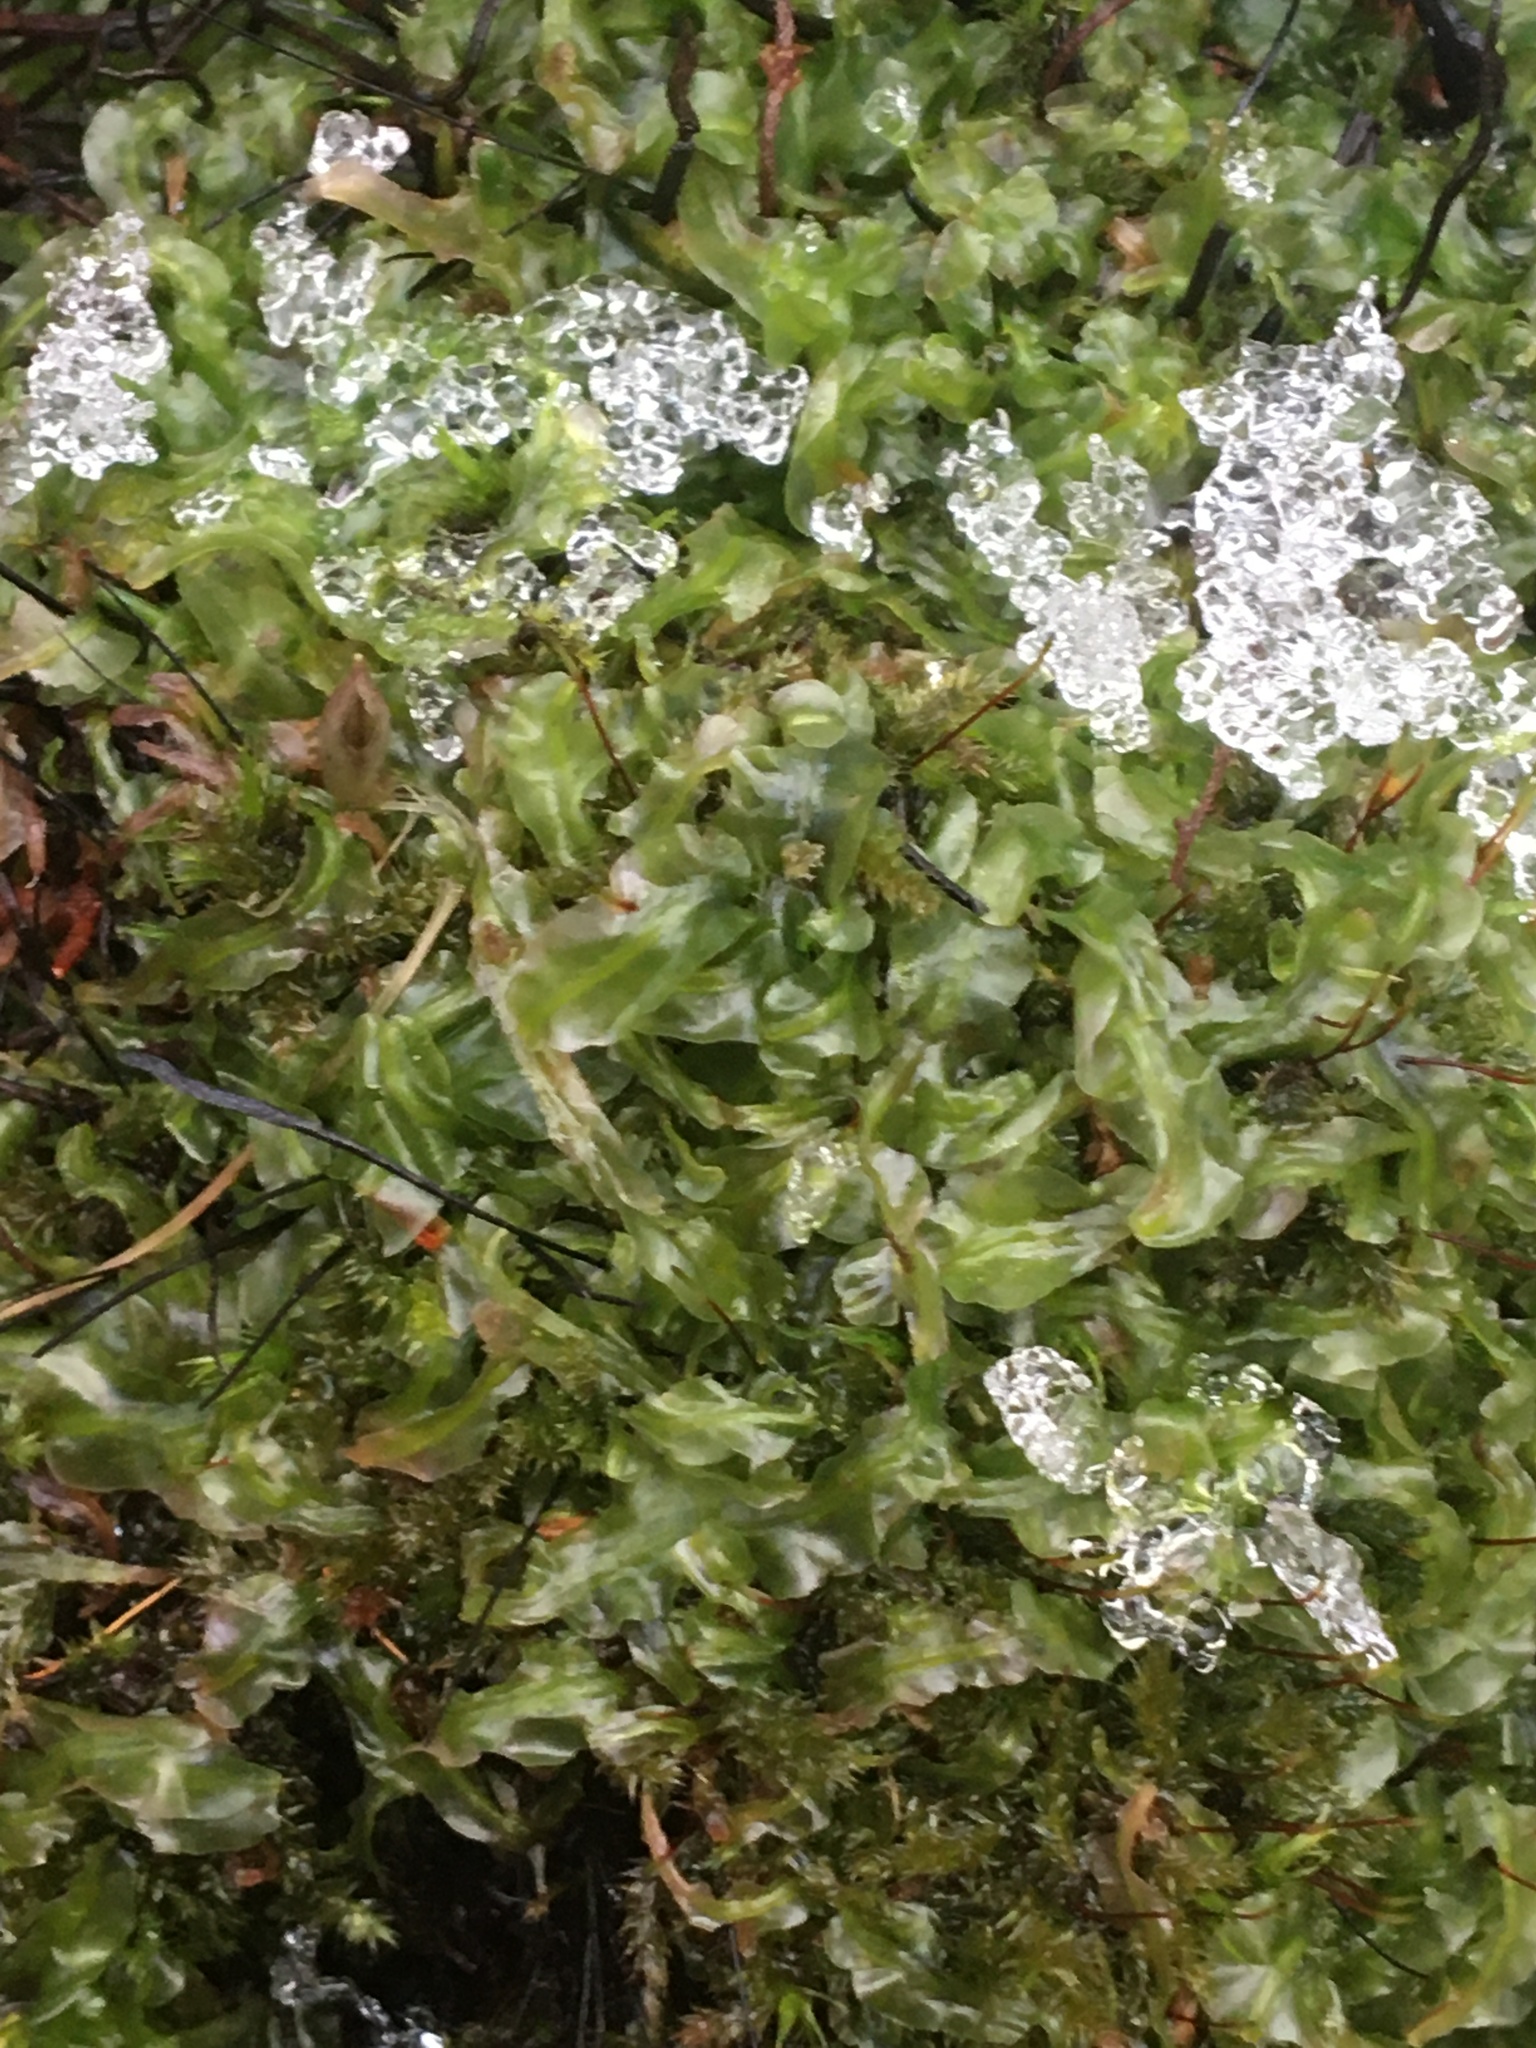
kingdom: Plantae
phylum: Marchantiophyta
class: Jungermanniopsida
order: Pallaviciniales
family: Pallaviciniaceae
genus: Pallavicinia
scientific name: Pallavicinia lyellii
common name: Veilwort
